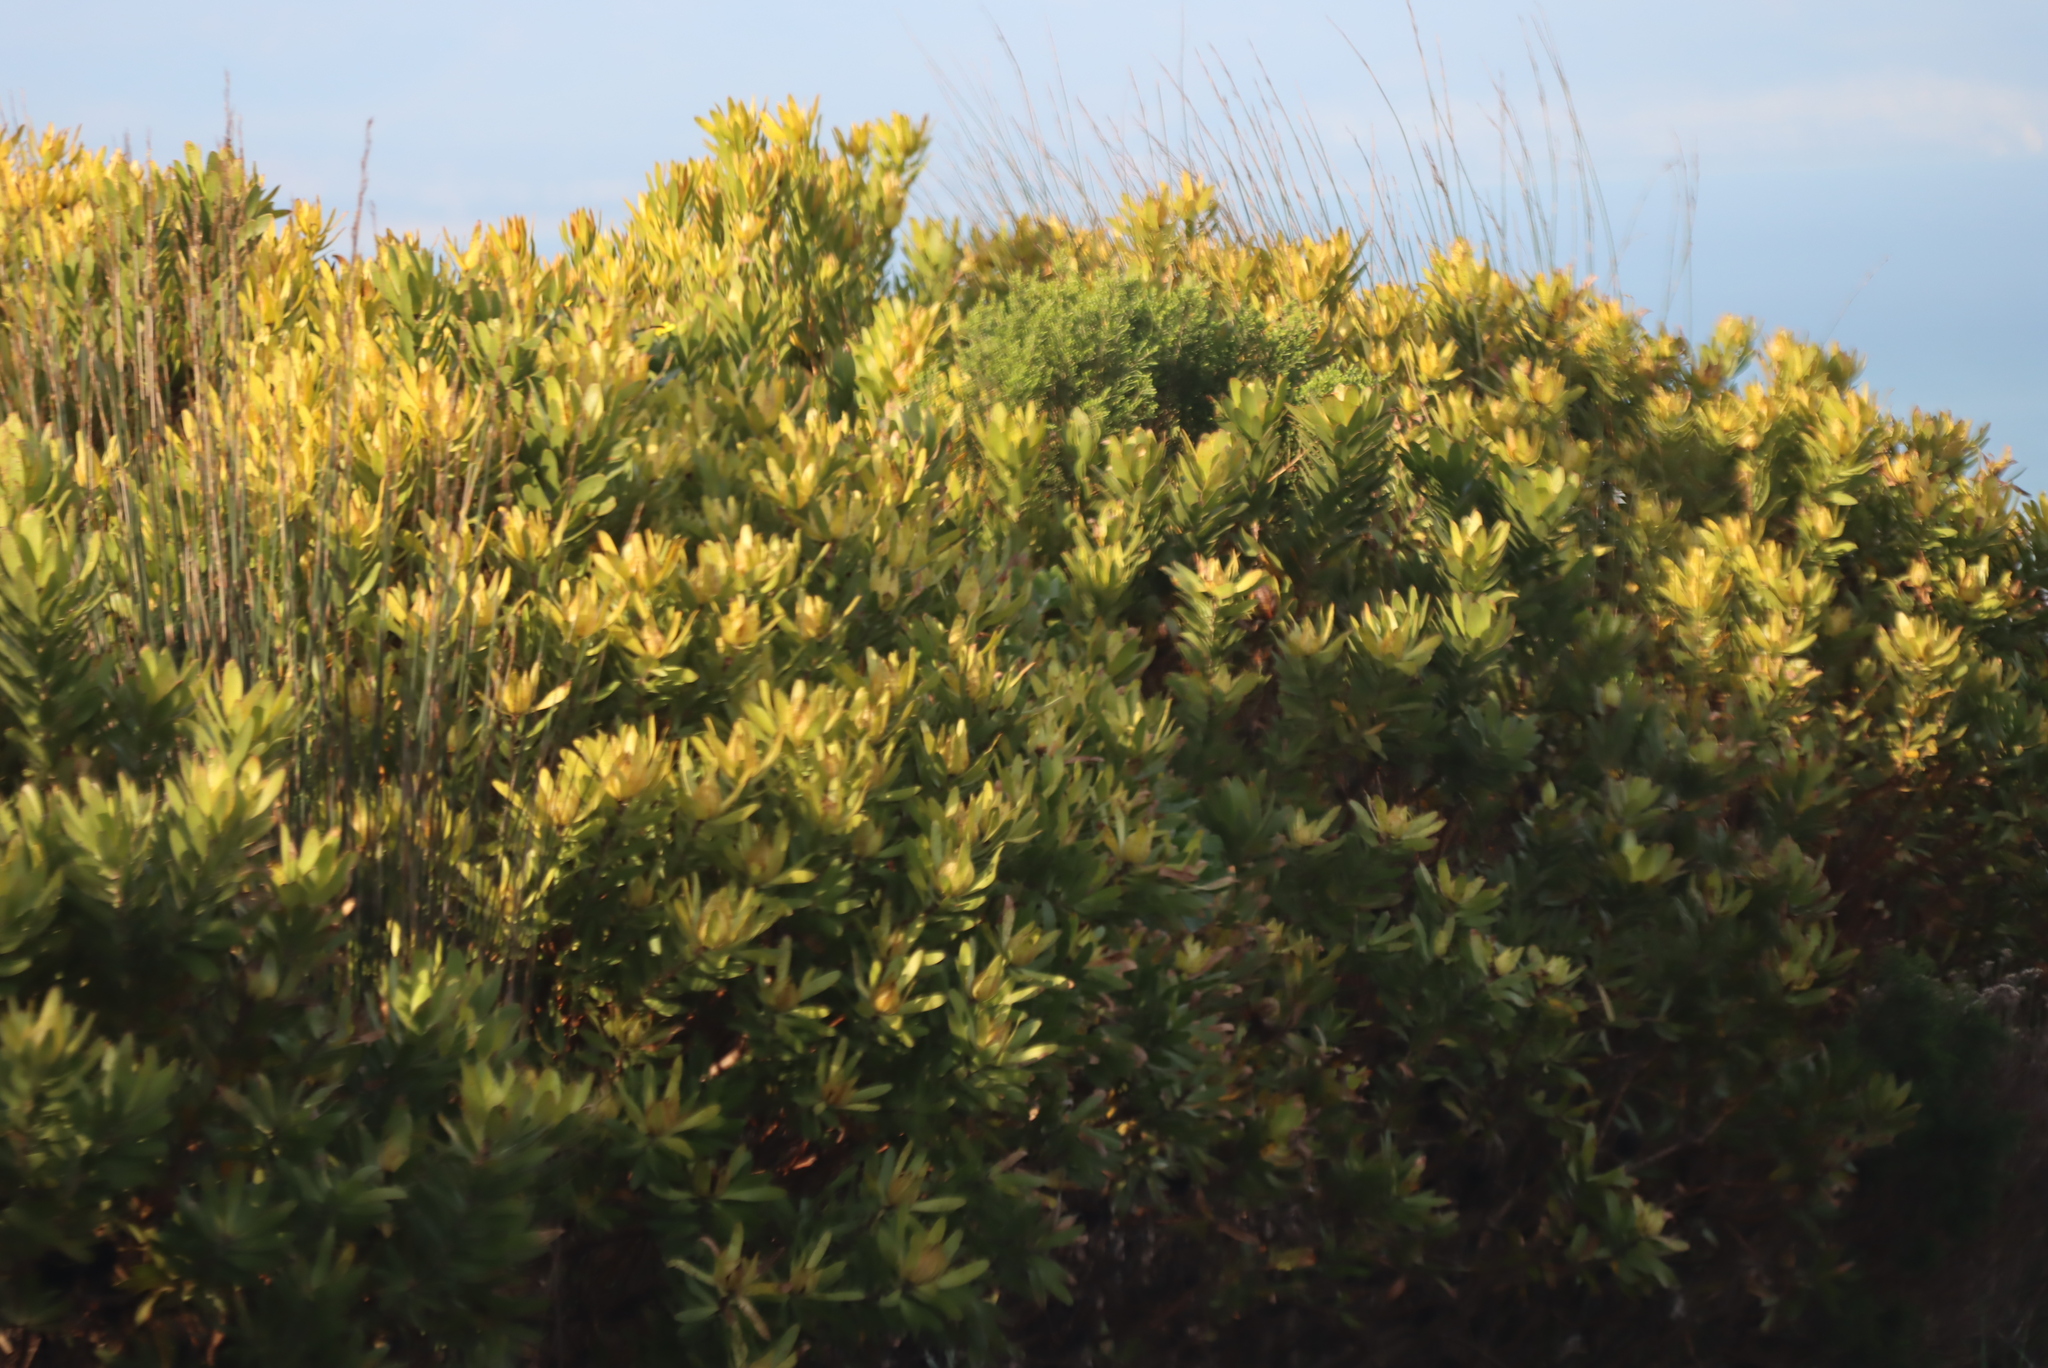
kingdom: Plantae
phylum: Tracheophyta
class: Magnoliopsida
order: Proteales
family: Proteaceae
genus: Leucadendron
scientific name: Leucadendron laureolum
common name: Golden sunshinebush
